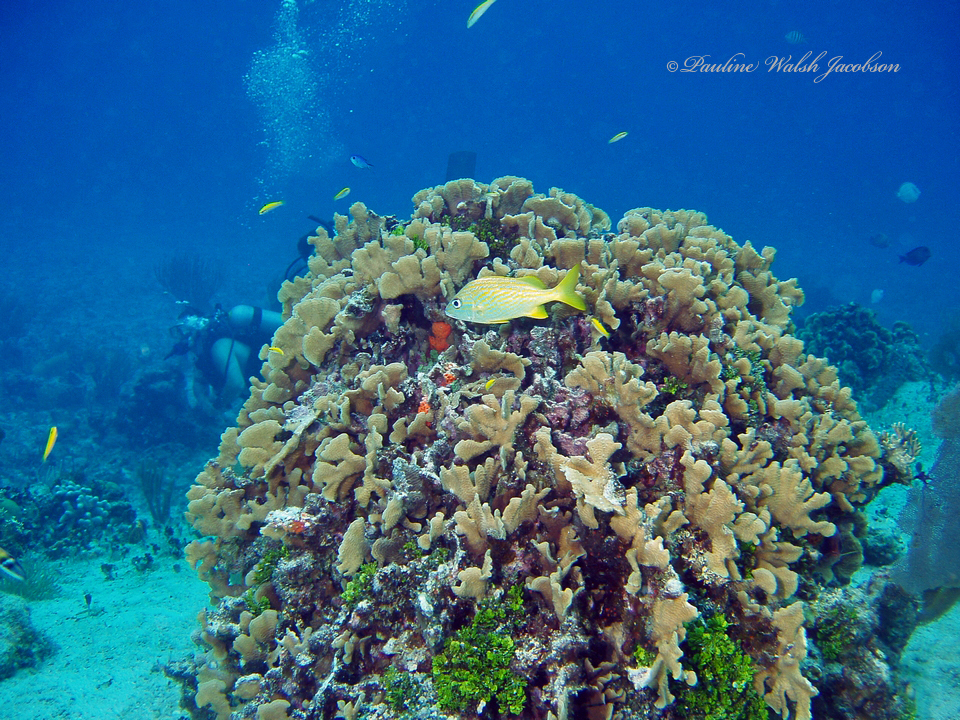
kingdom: Animalia
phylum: Chordata
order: Perciformes
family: Haemulidae
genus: Haemulon
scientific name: Haemulon flavolineatum
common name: French grunt
